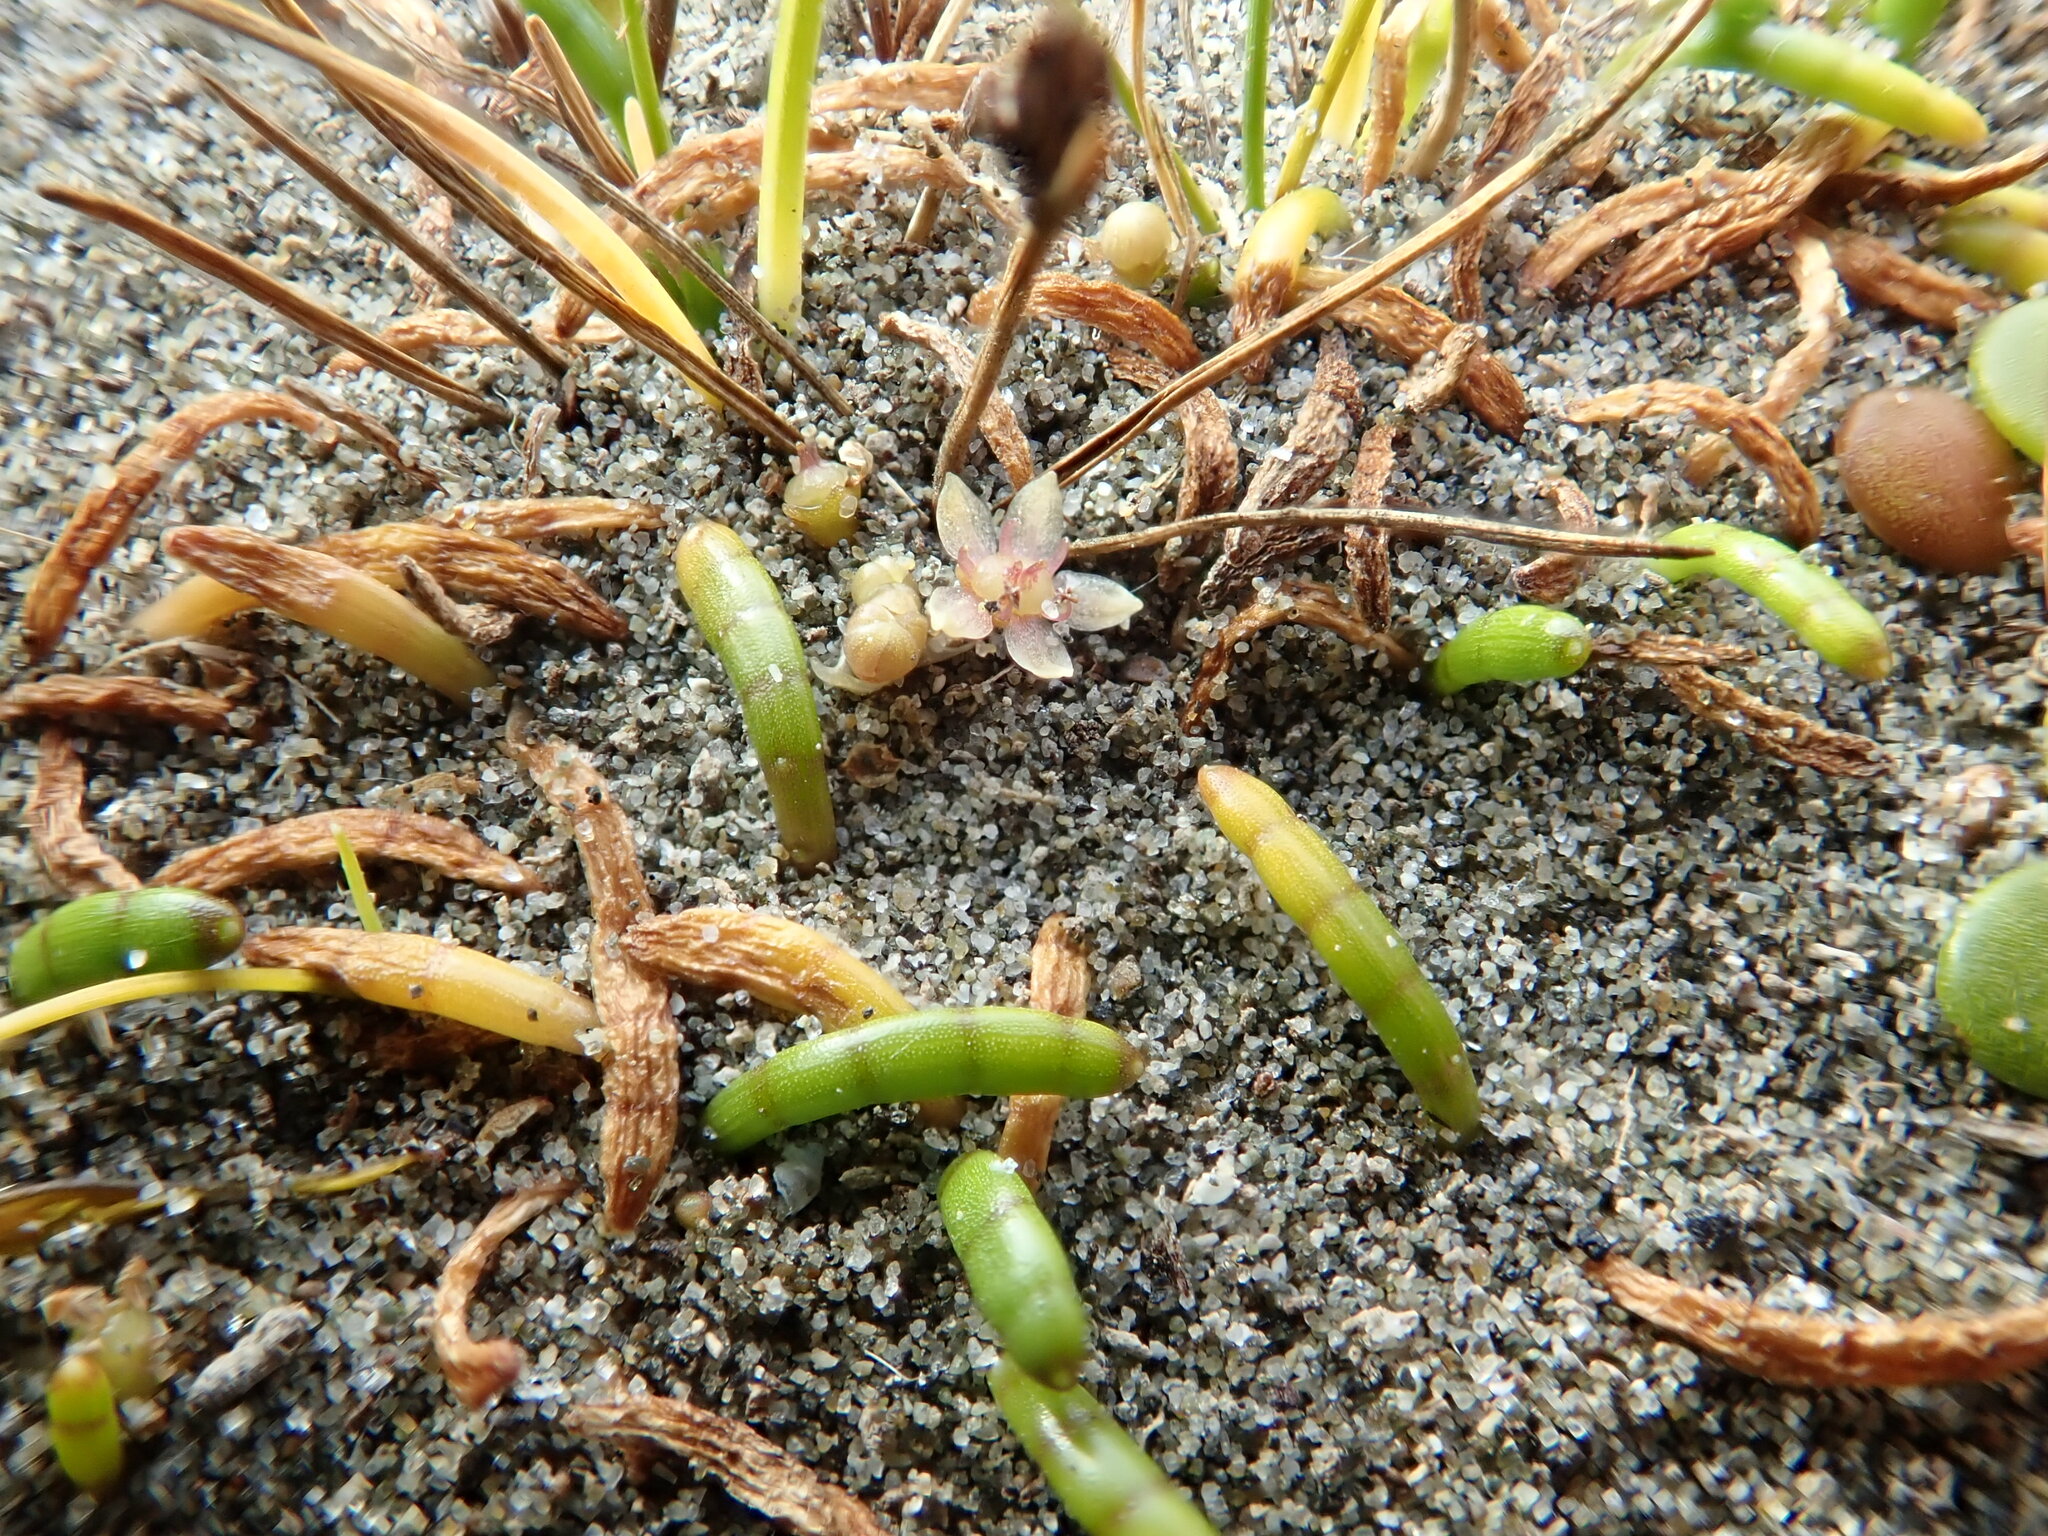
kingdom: Plantae
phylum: Tracheophyta
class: Magnoliopsida
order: Apiales
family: Apiaceae
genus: Lilaeopsis
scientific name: Lilaeopsis novae-zelandiae
